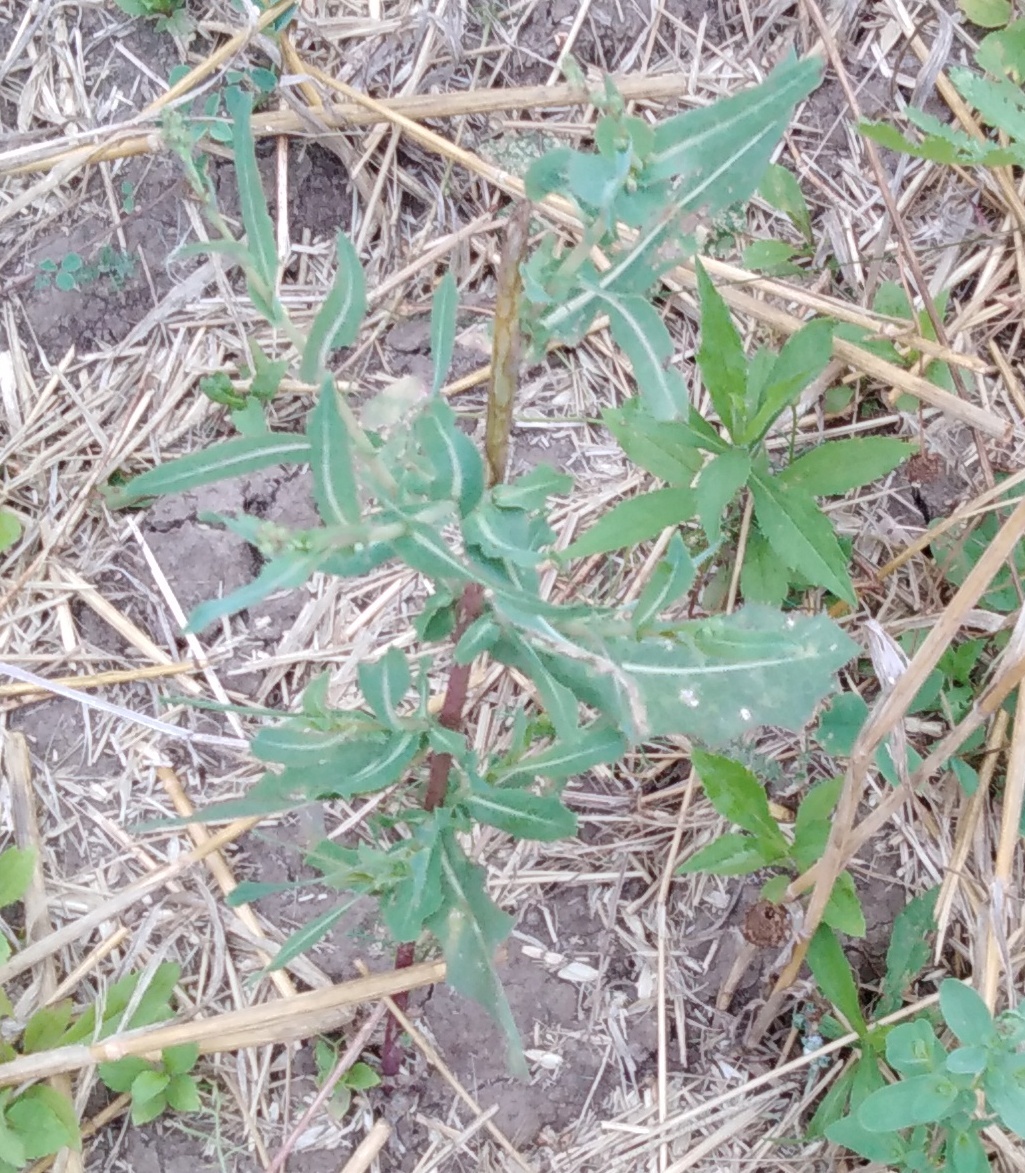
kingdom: Plantae
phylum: Tracheophyta
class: Magnoliopsida
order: Asterales
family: Asteraceae
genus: Lactuca
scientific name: Lactuca serriola
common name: Prickly lettuce
